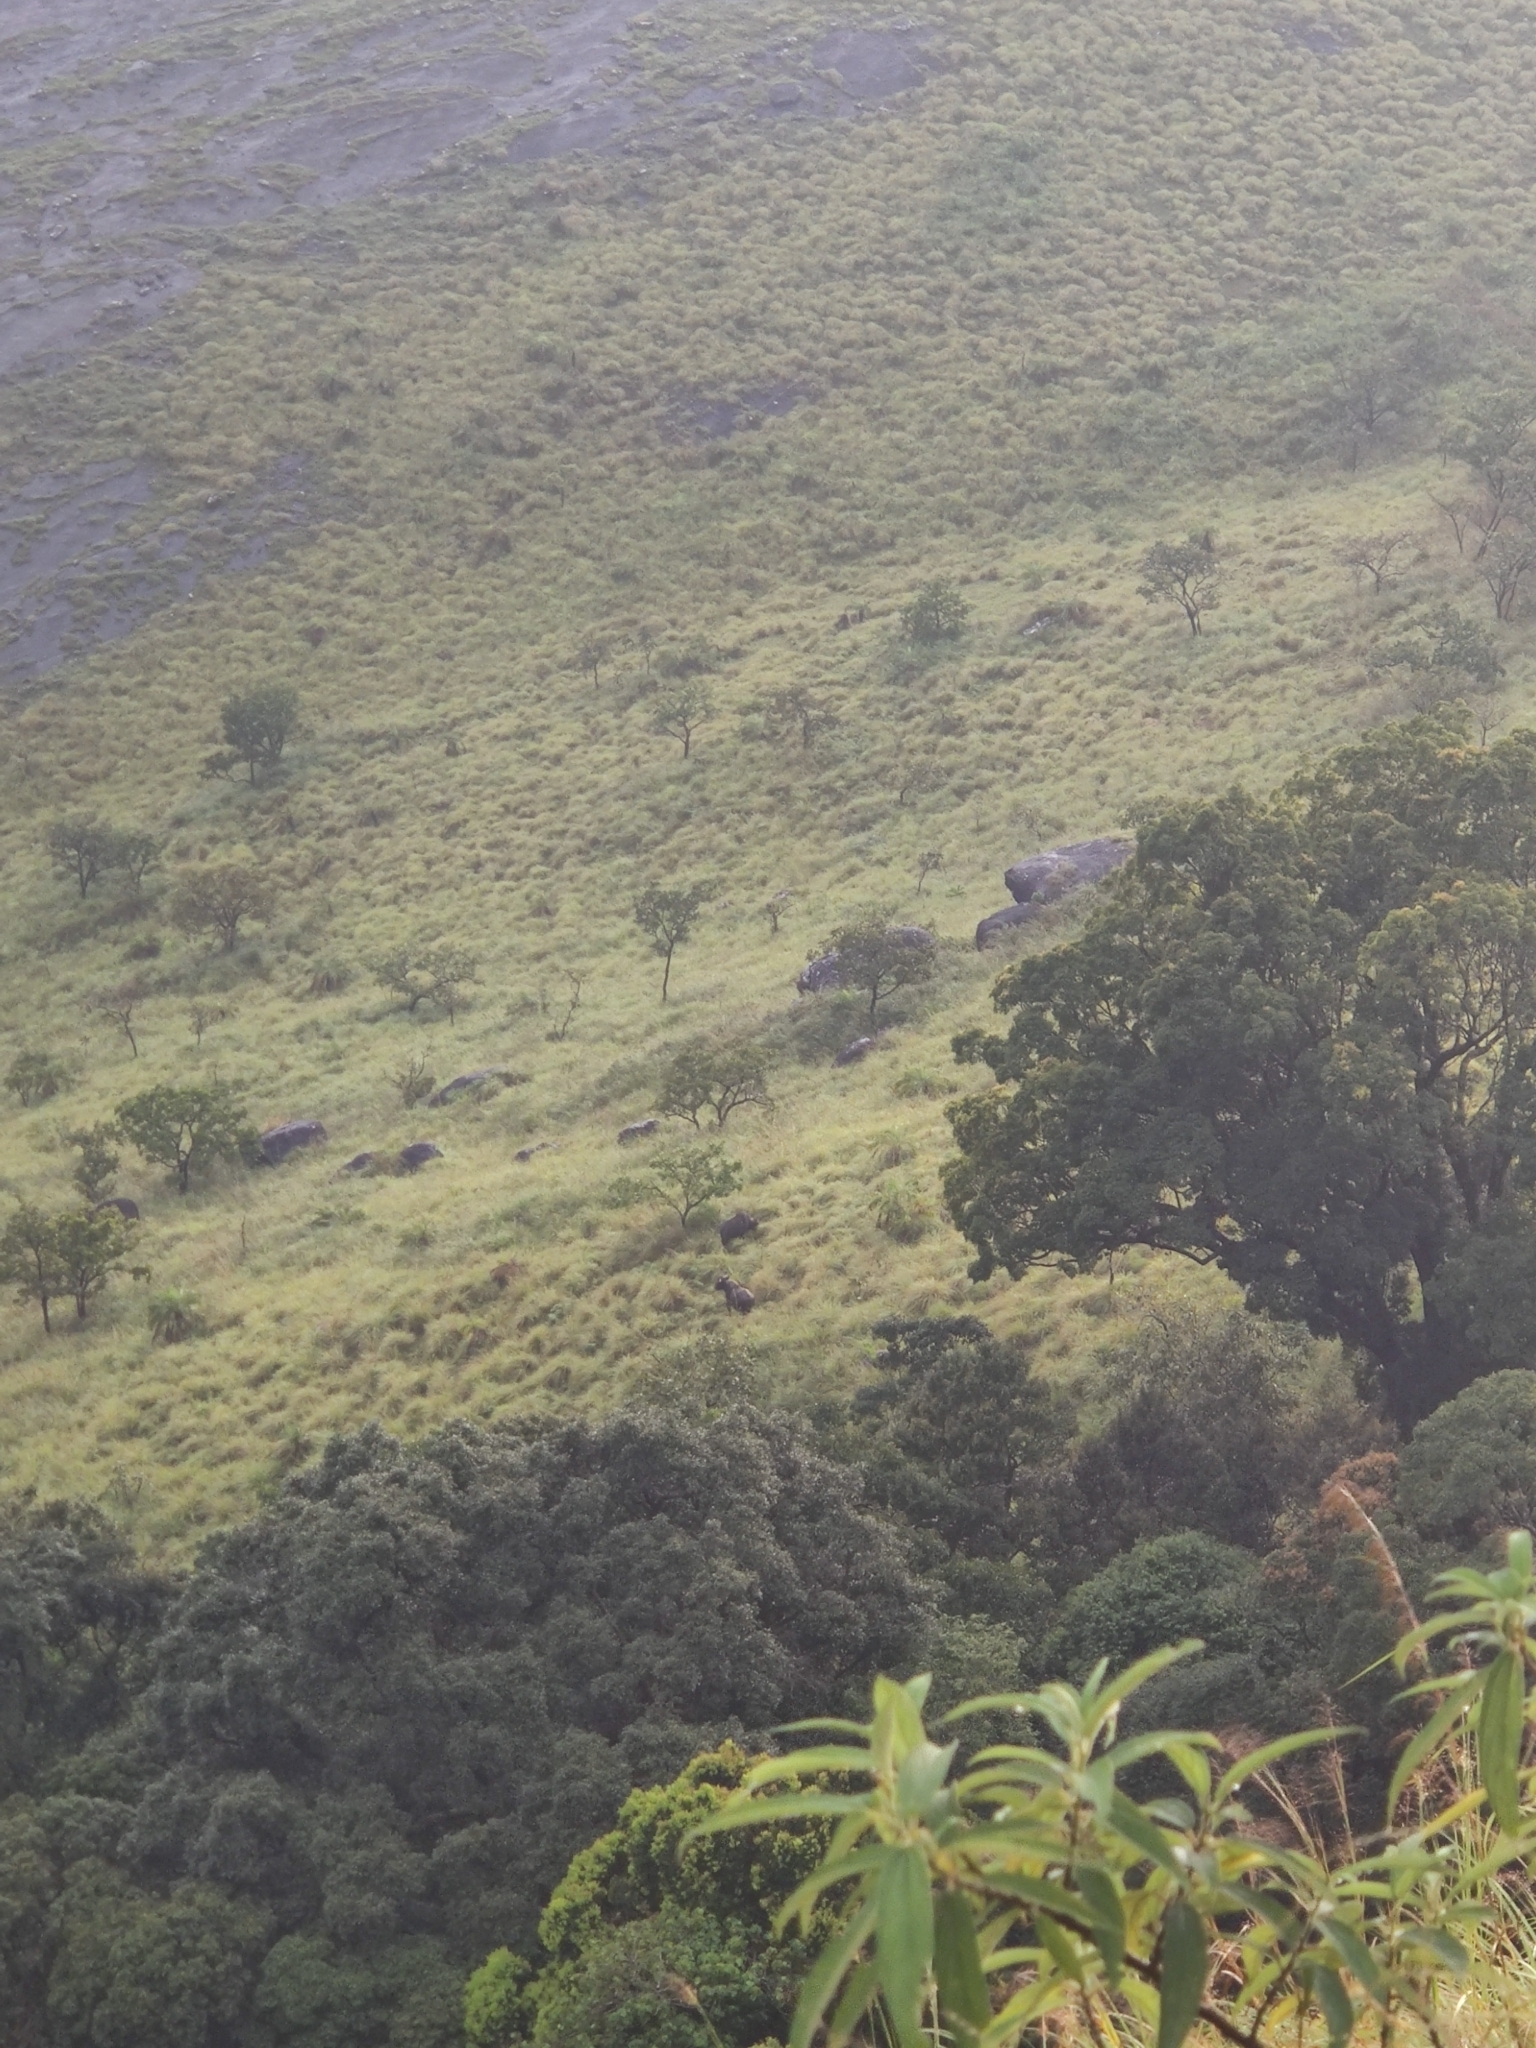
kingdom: Animalia
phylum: Chordata
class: Mammalia
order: Artiodactyla
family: Bovidae
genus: Bos
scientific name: Bos frontalis
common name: Gaur
